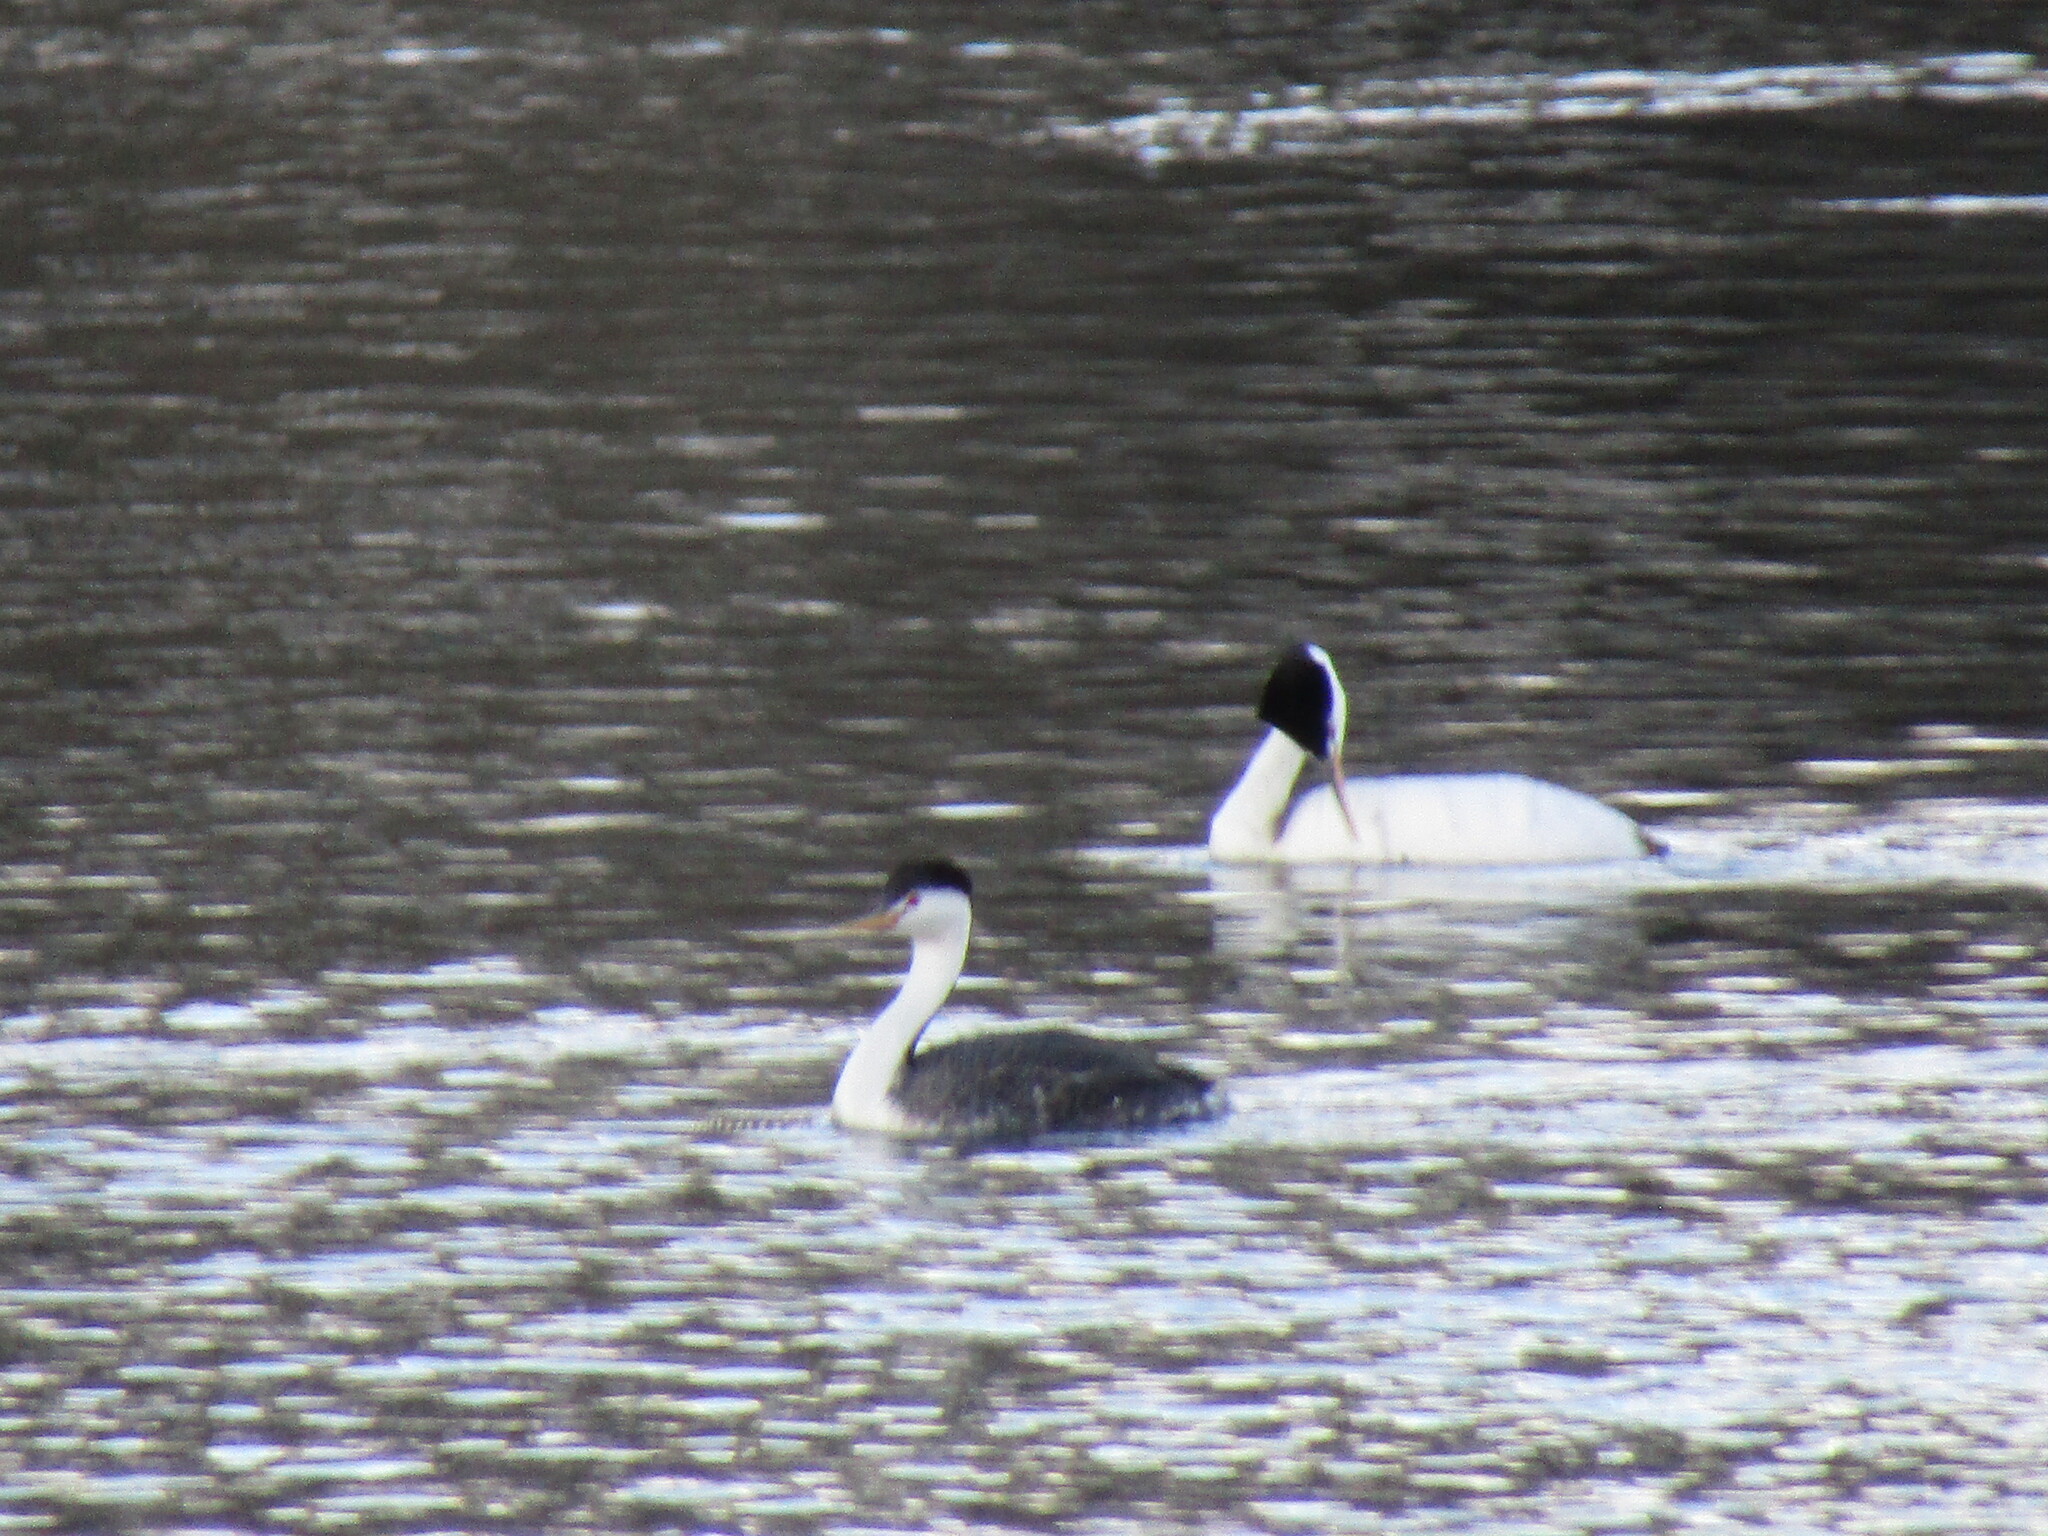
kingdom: Animalia
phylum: Chordata
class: Aves
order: Podicipediformes
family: Podicipedidae
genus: Aechmophorus
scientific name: Aechmophorus clarkii
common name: Clark's grebe
